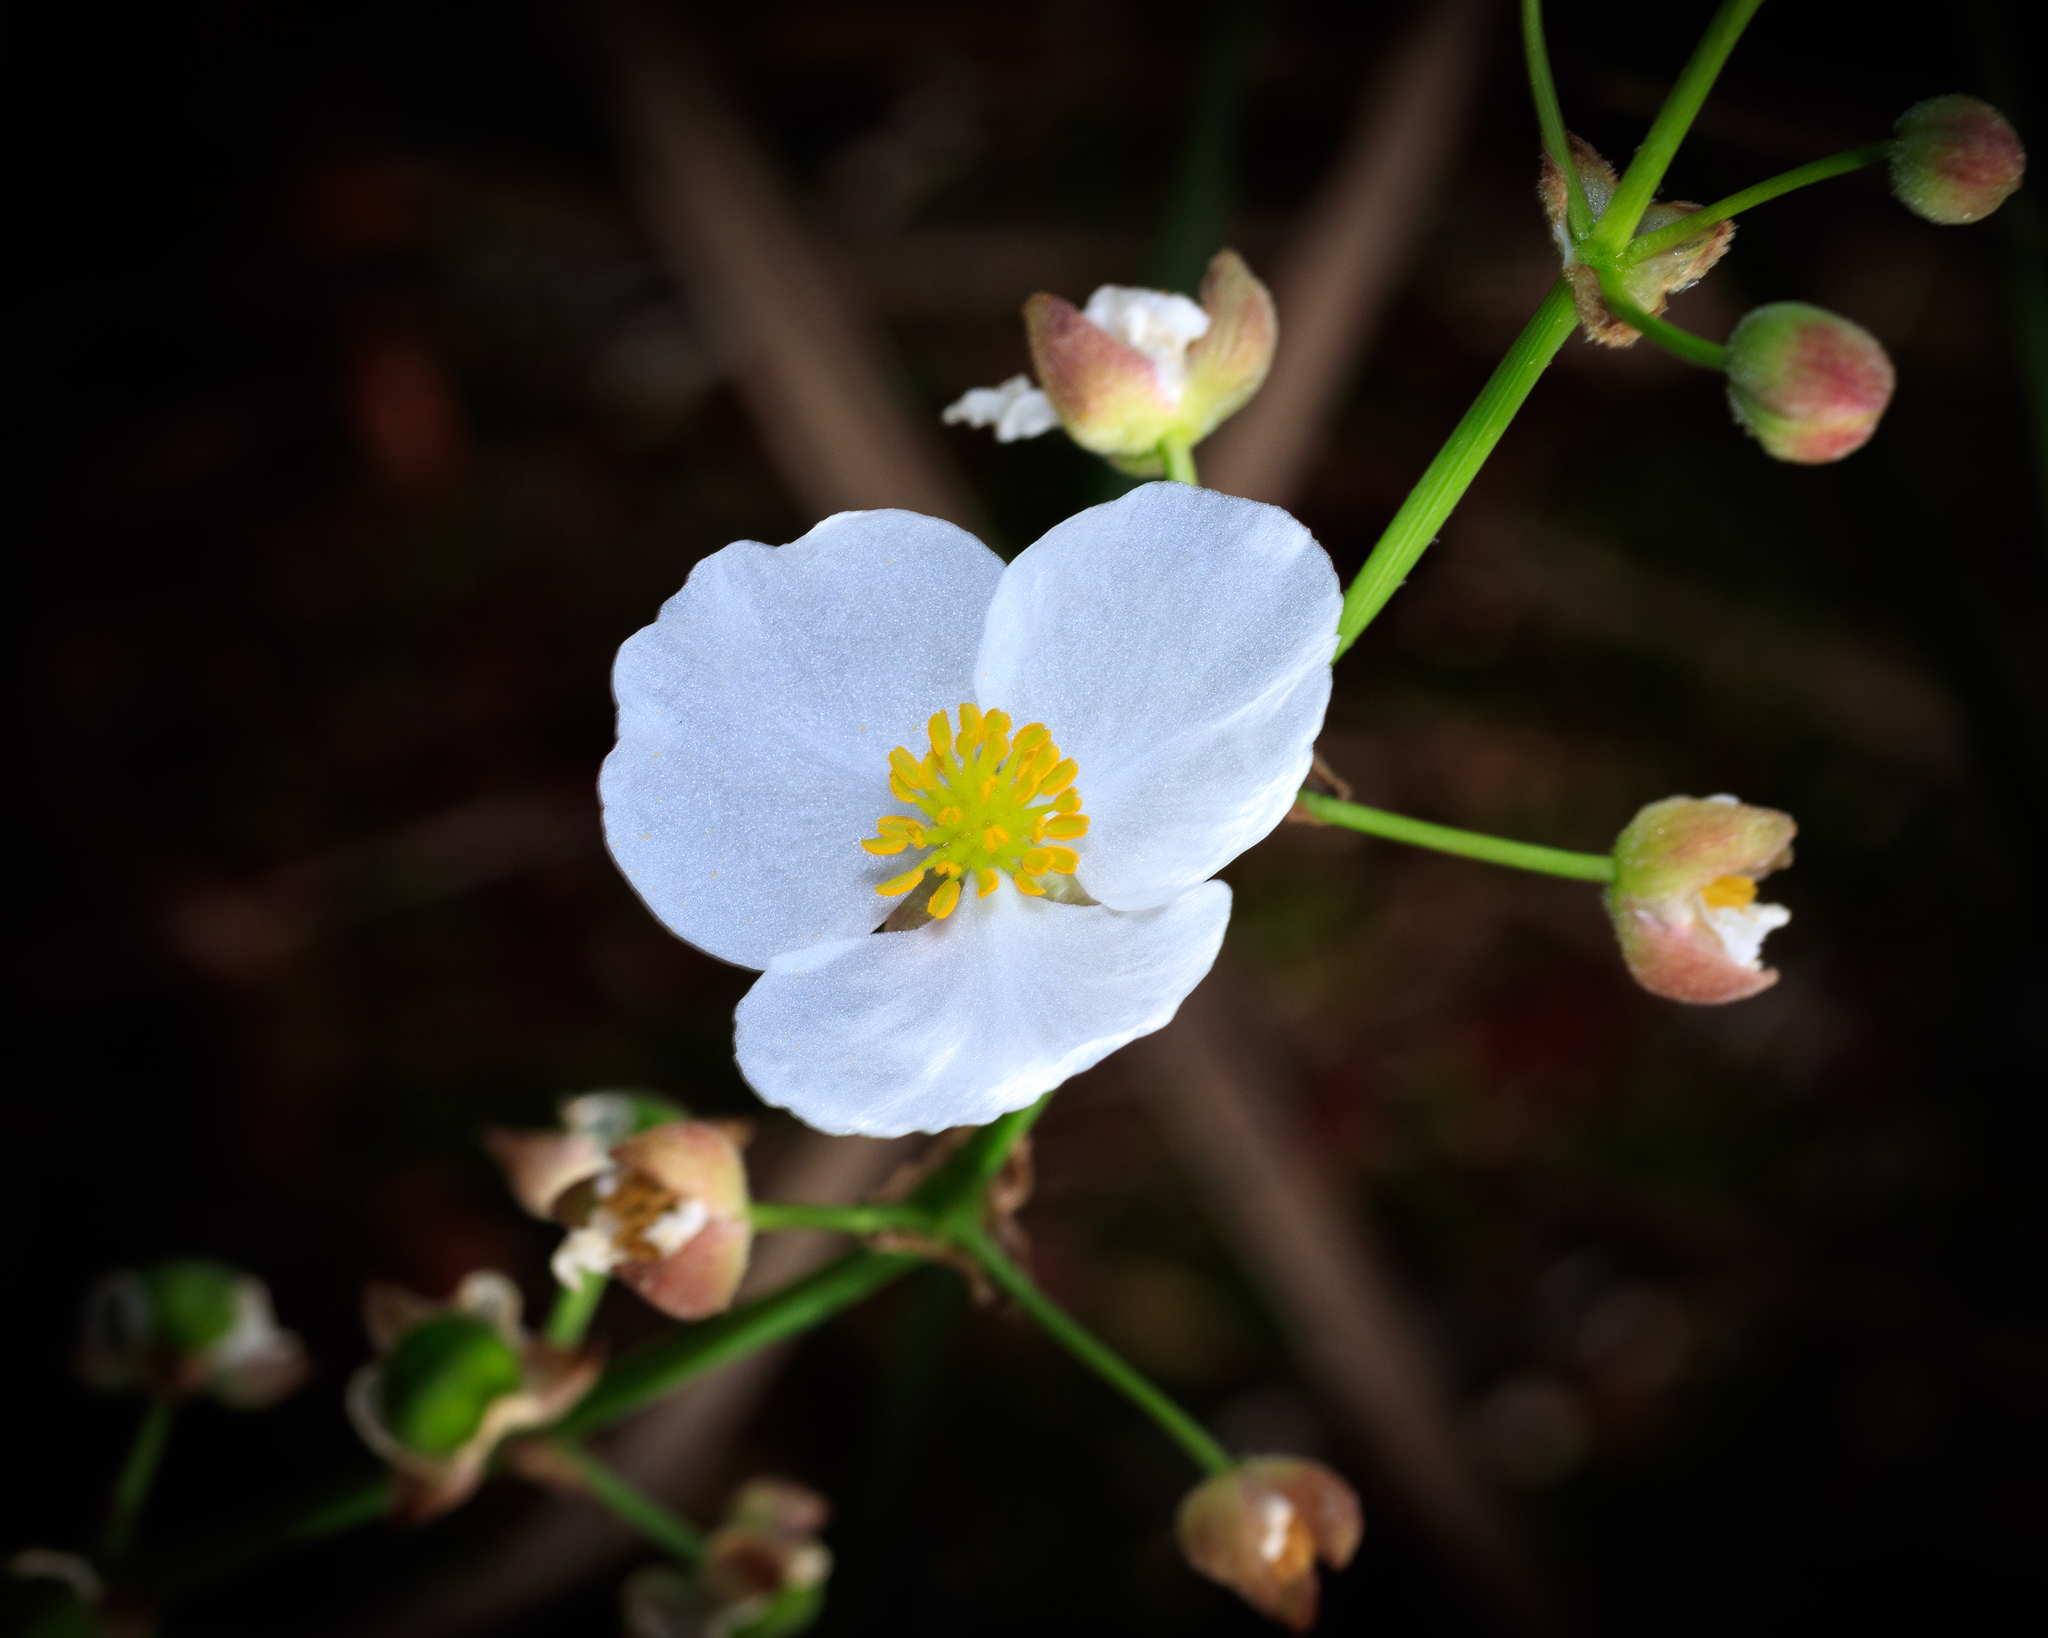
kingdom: Plantae
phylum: Tracheophyta
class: Liliopsida
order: Alismatales
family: Alismataceae
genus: Sagittaria
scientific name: Sagittaria lancifolia
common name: Lance-leaf arrowhead
